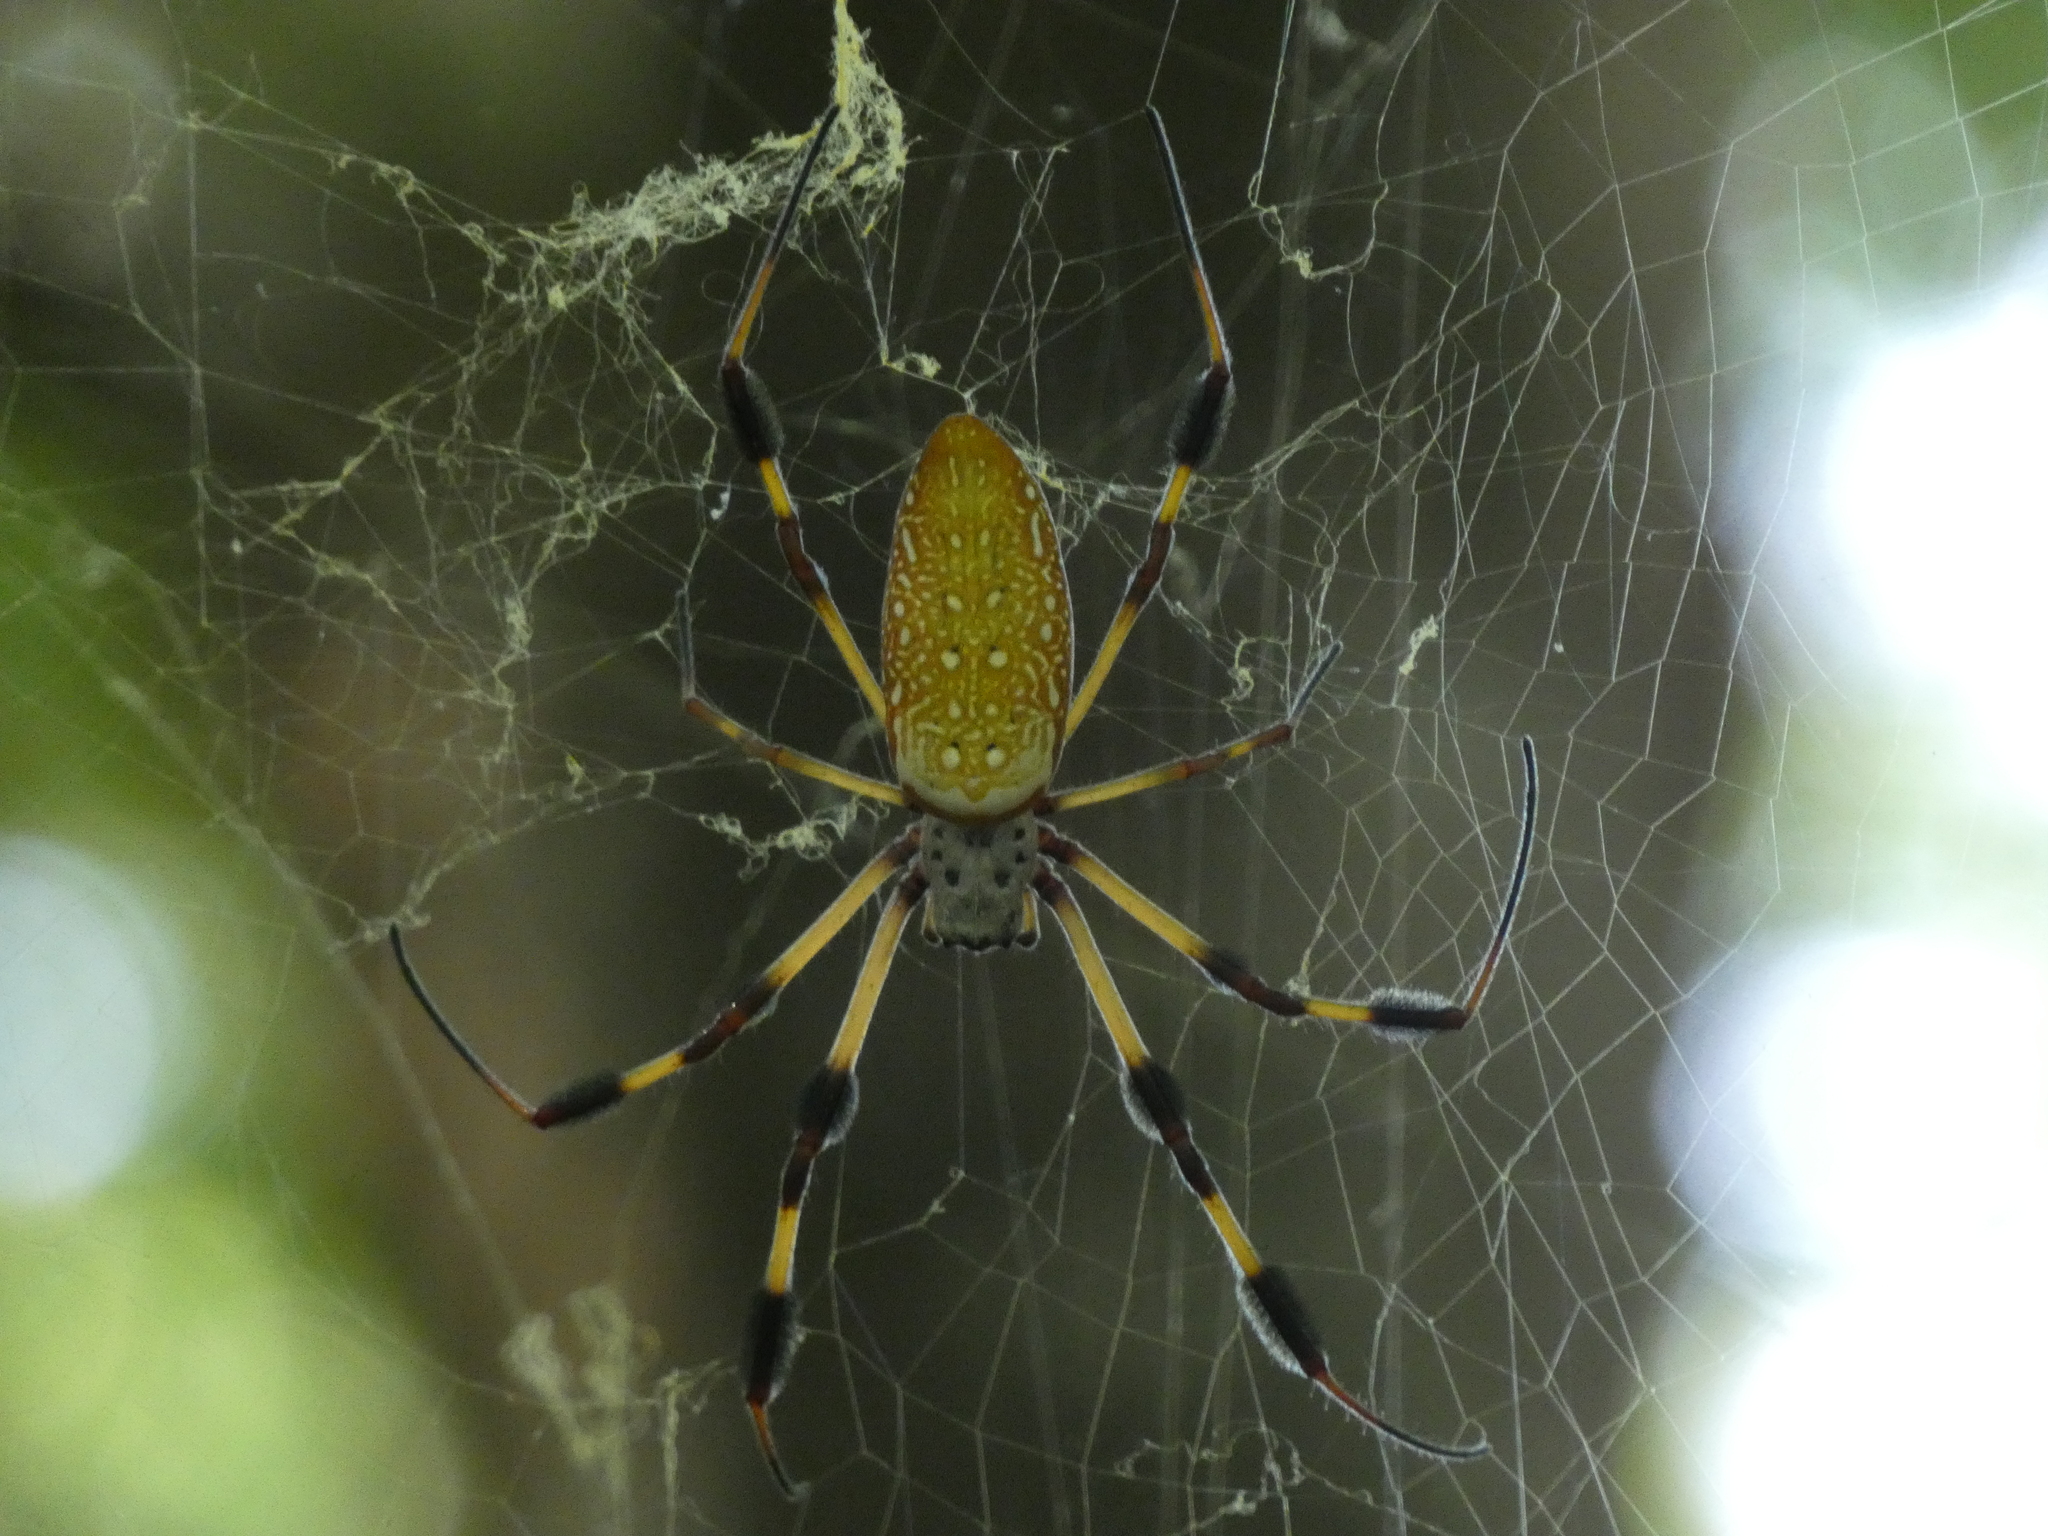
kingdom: Animalia
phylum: Arthropoda
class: Arachnida
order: Araneae
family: Araneidae
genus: Trichonephila
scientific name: Trichonephila clavipes
